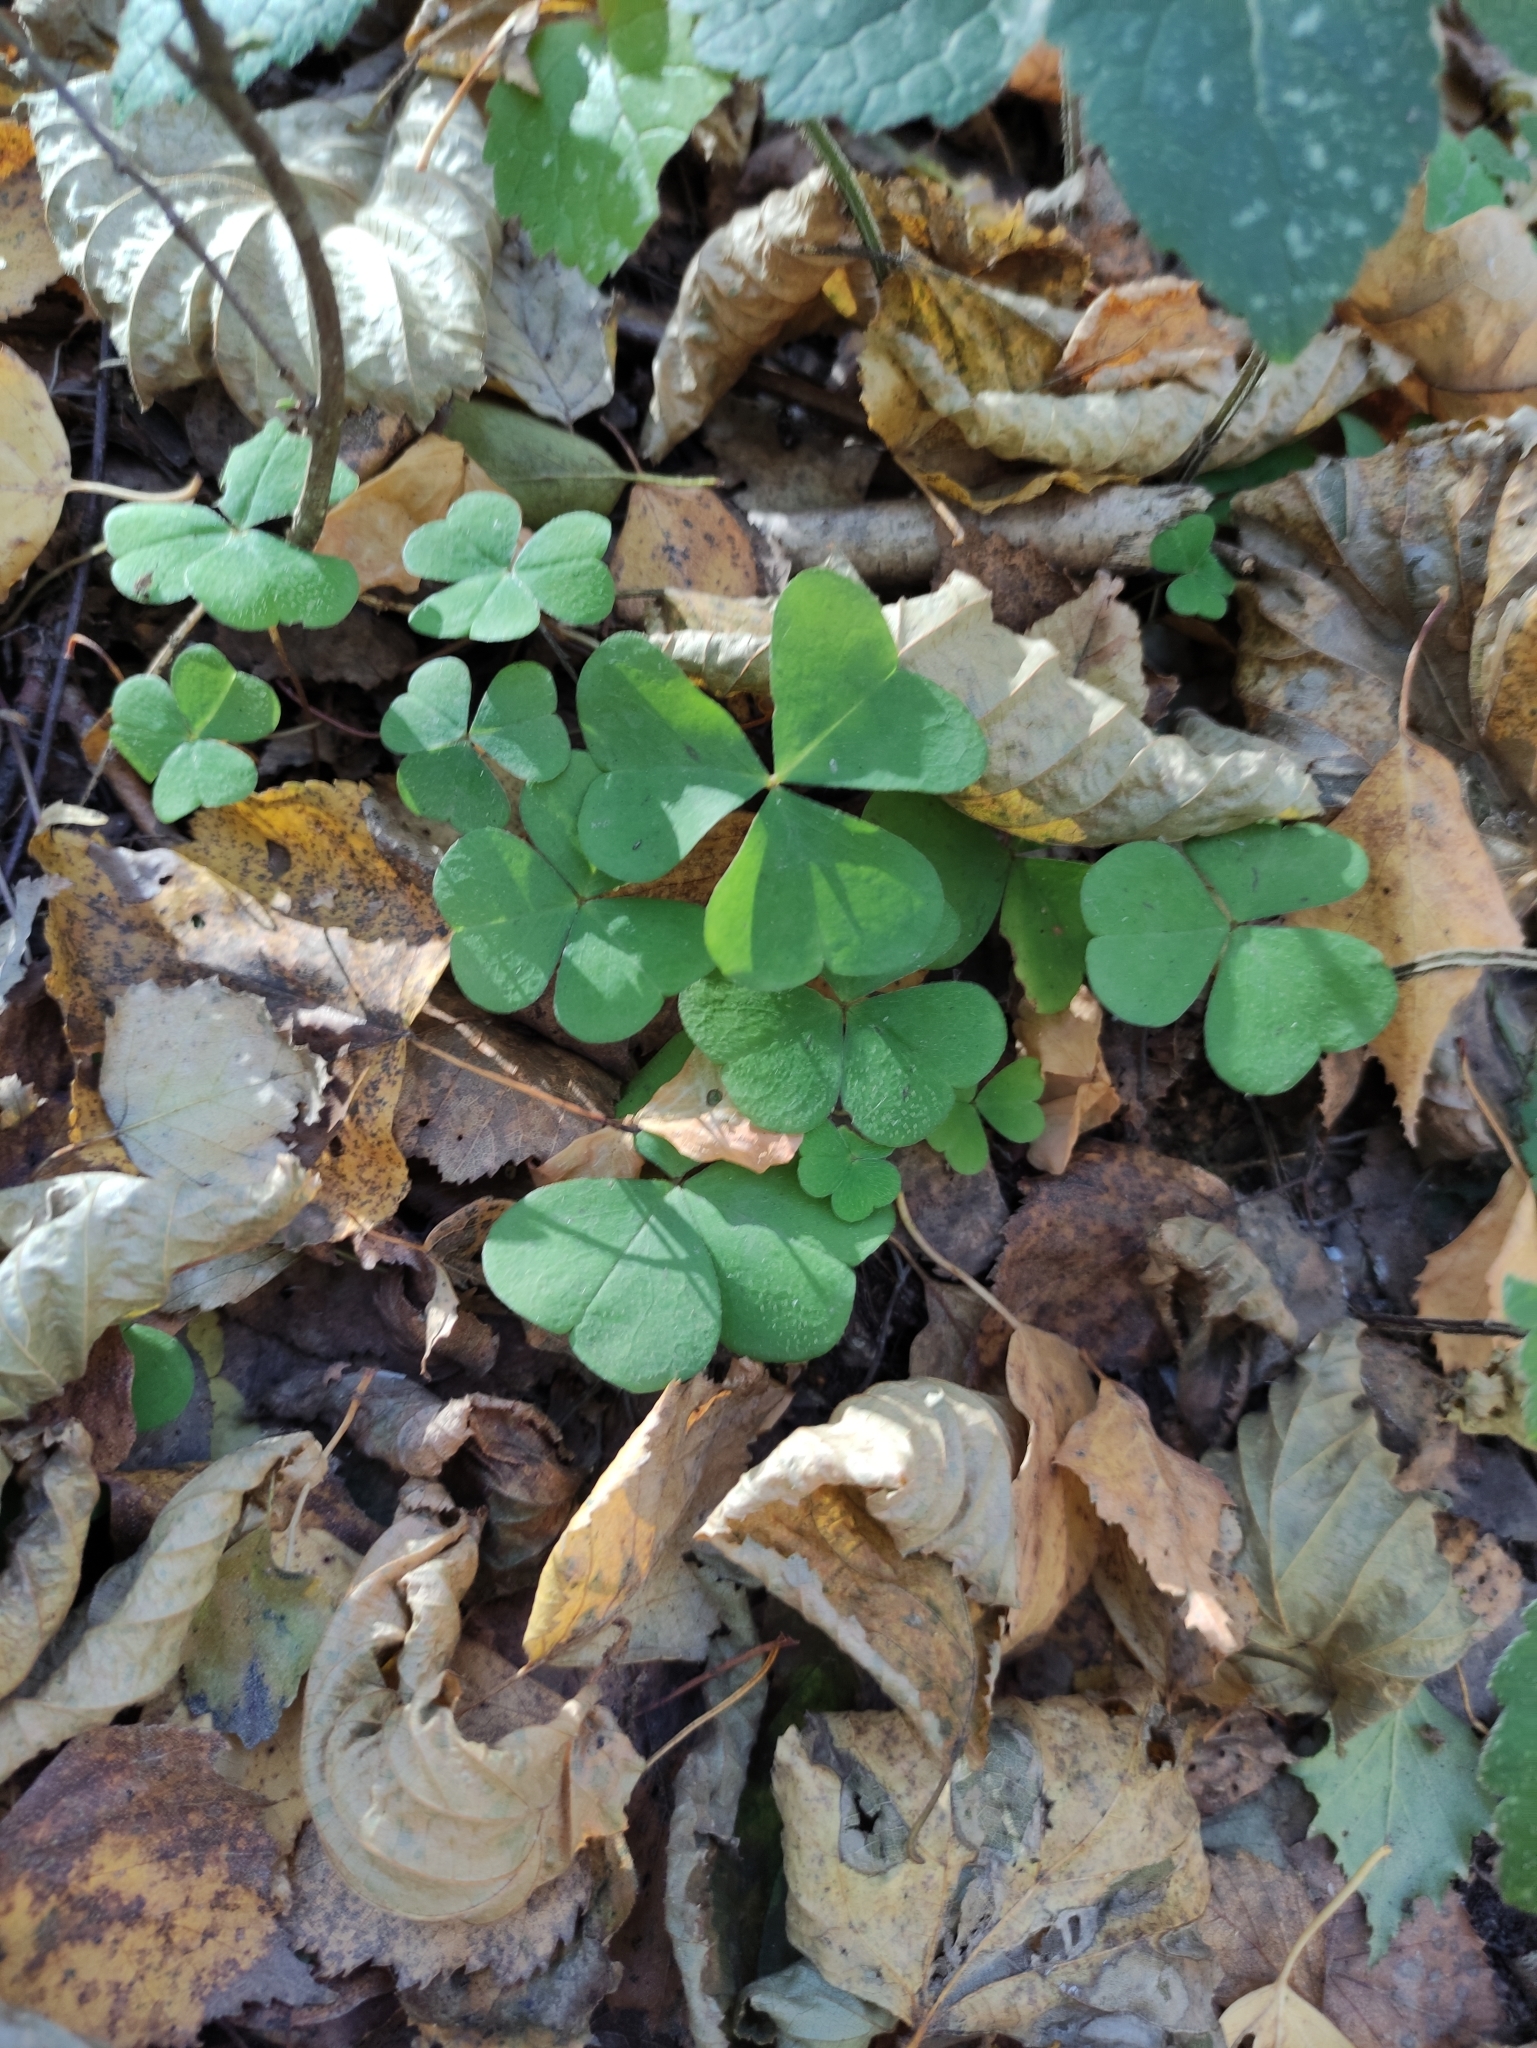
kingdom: Plantae
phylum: Tracheophyta
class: Magnoliopsida
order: Oxalidales
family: Oxalidaceae
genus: Oxalis
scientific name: Oxalis acetosella
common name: Wood-sorrel
